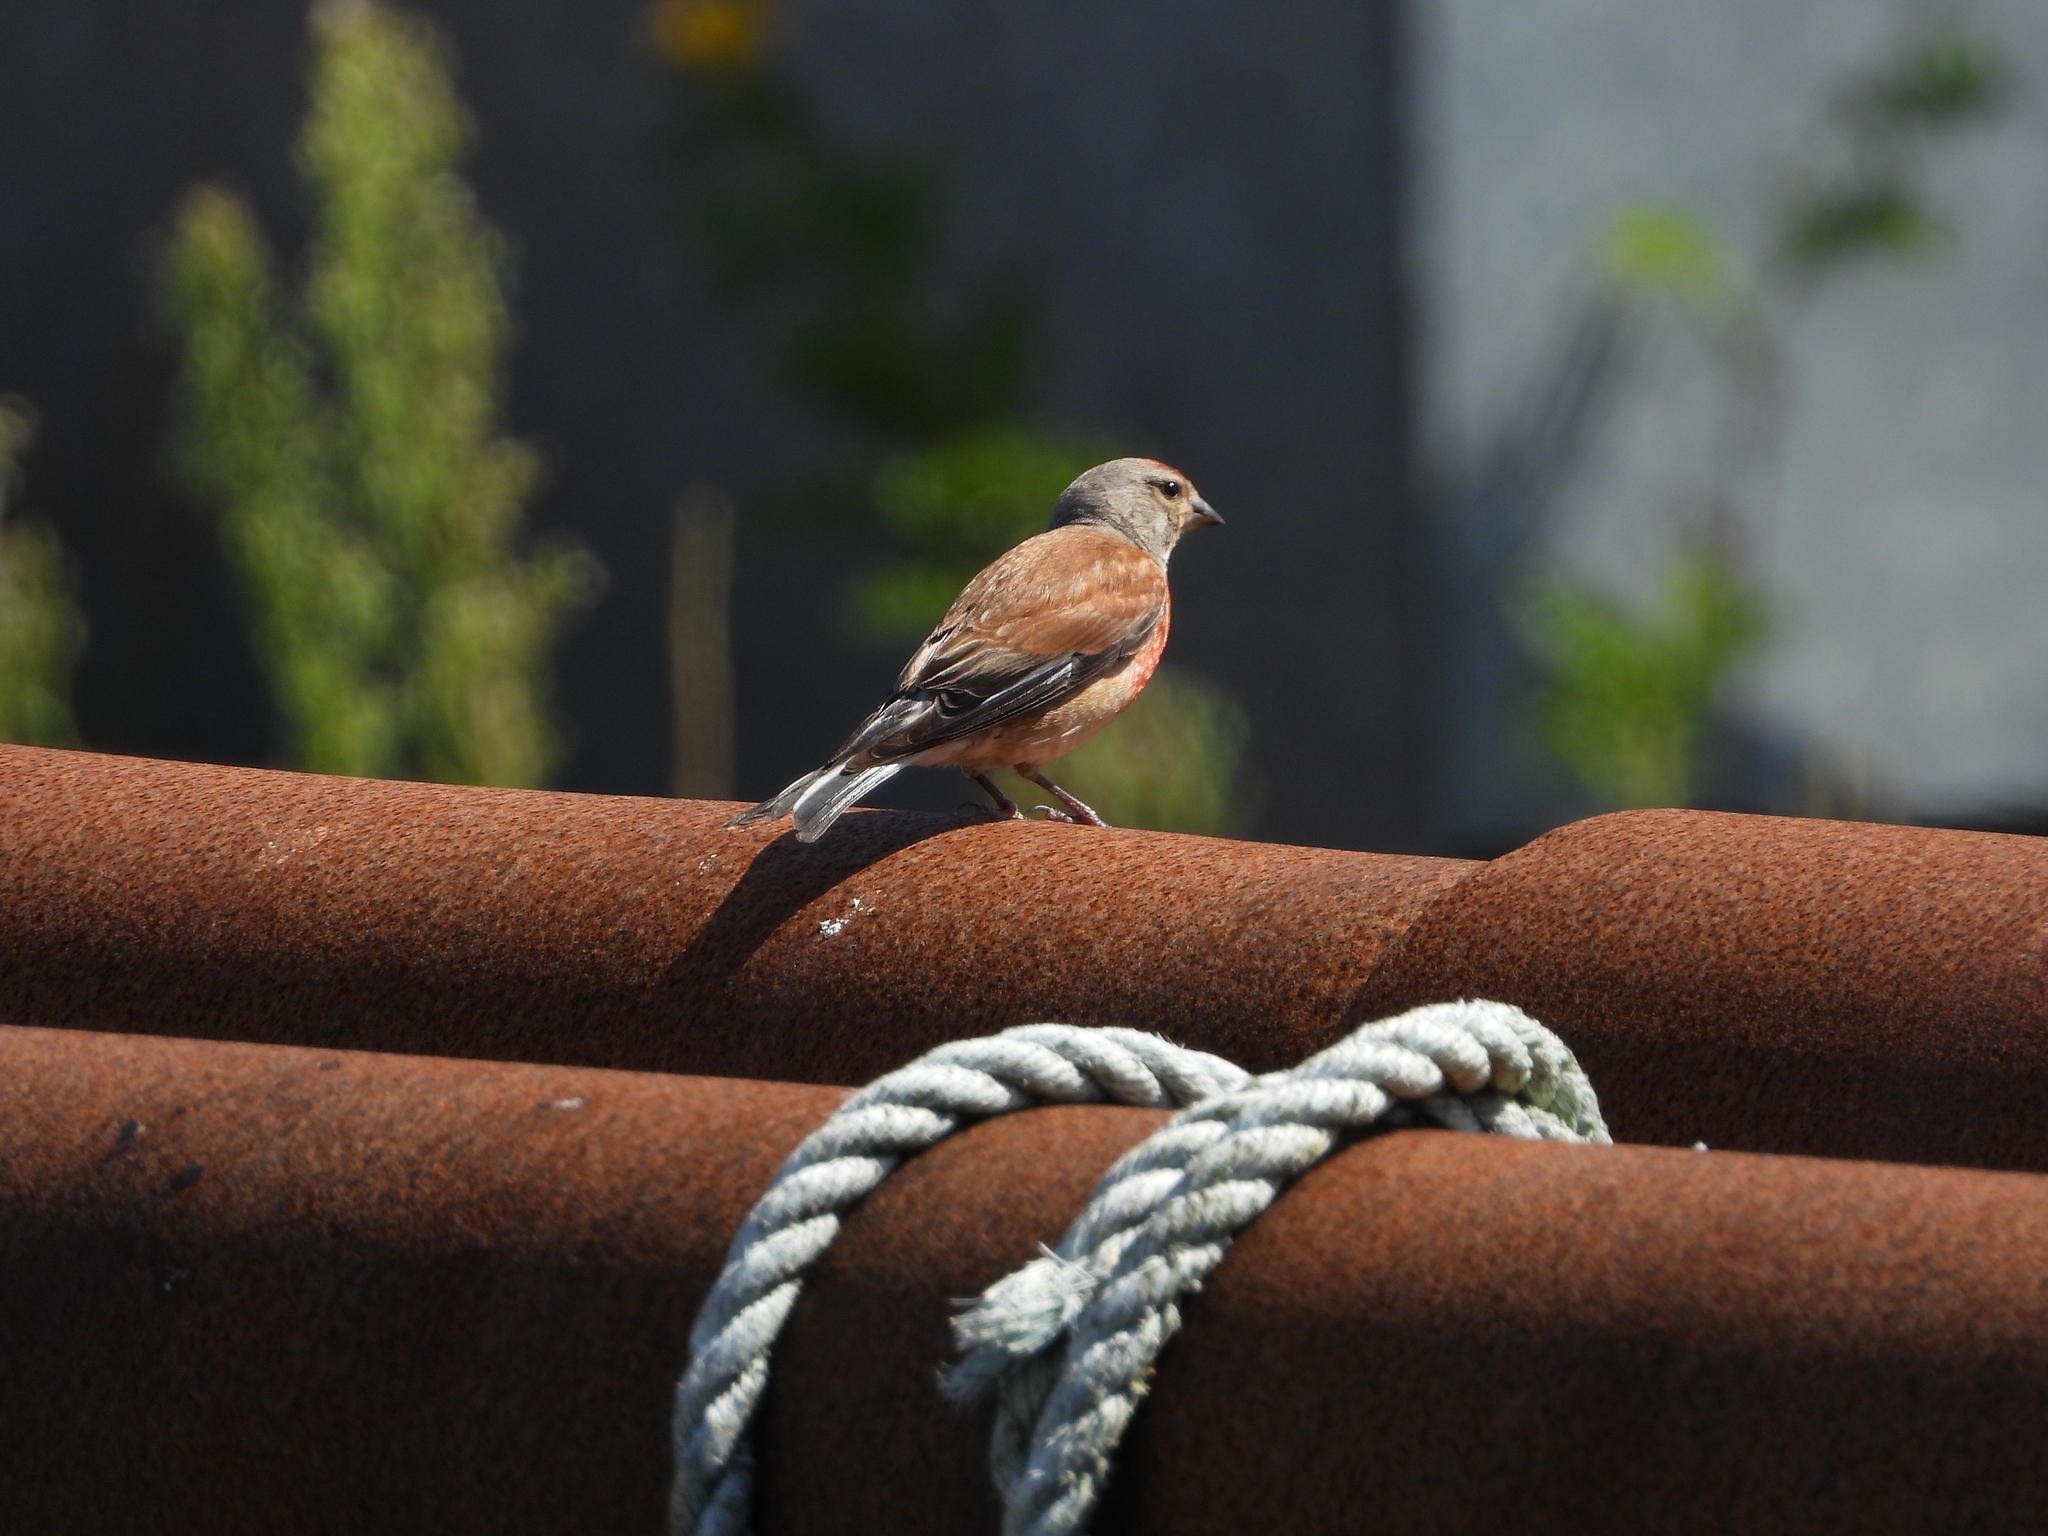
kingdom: Animalia
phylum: Chordata
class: Aves
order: Passeriformes
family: Fringillidae
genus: Linaria
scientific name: Linaria cannabina
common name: Common linnet
